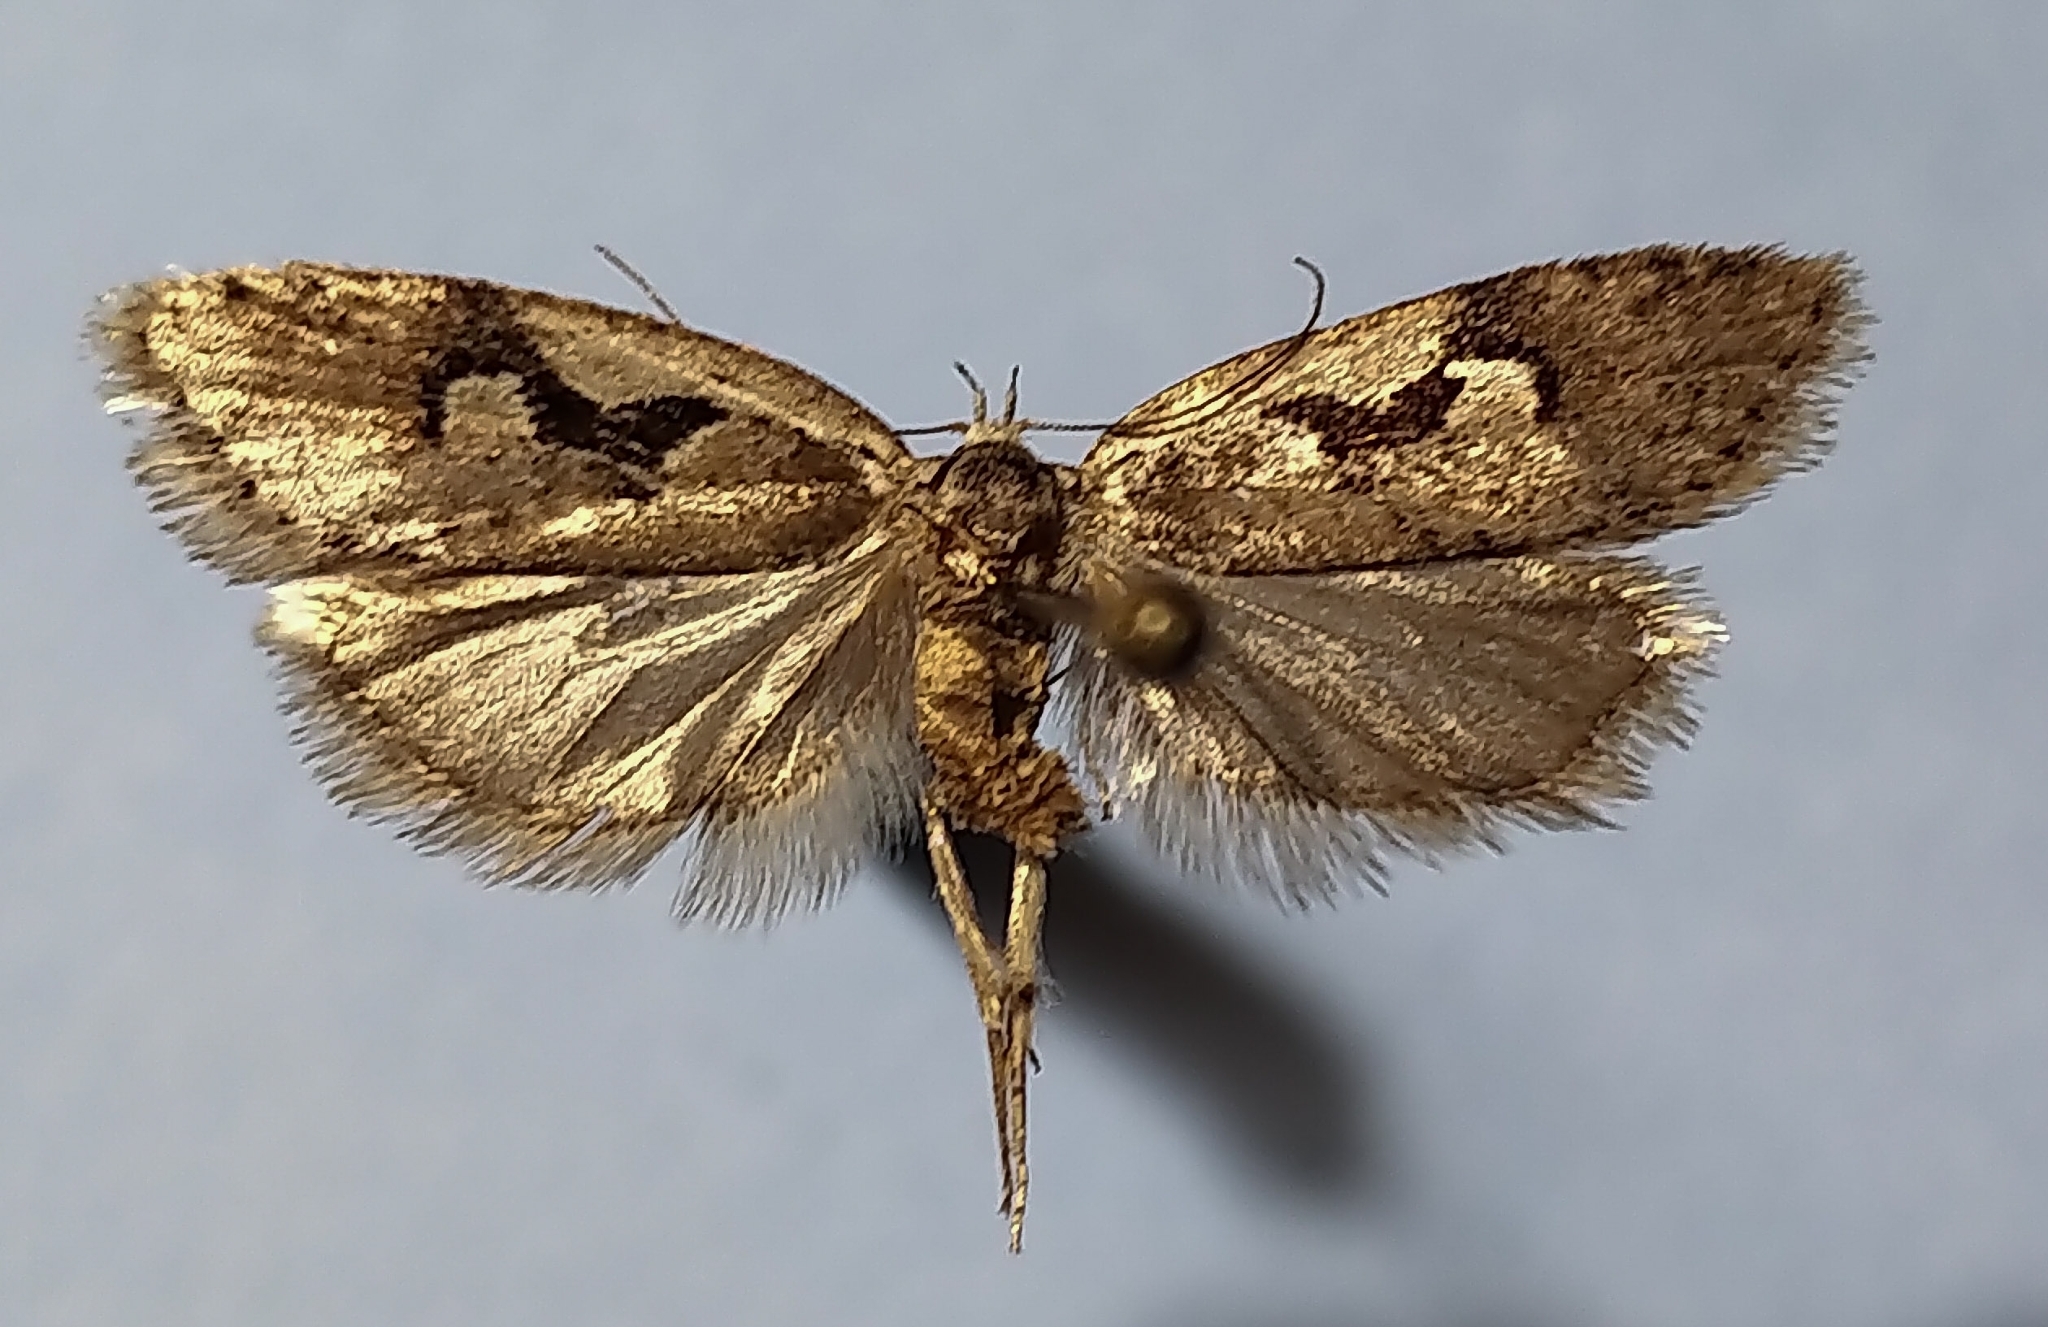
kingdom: Animalia
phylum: Arthropoda
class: Insecta
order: Lepidoptera
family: Depressariidae
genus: Semioscopis
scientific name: Semioscopis merriccella
